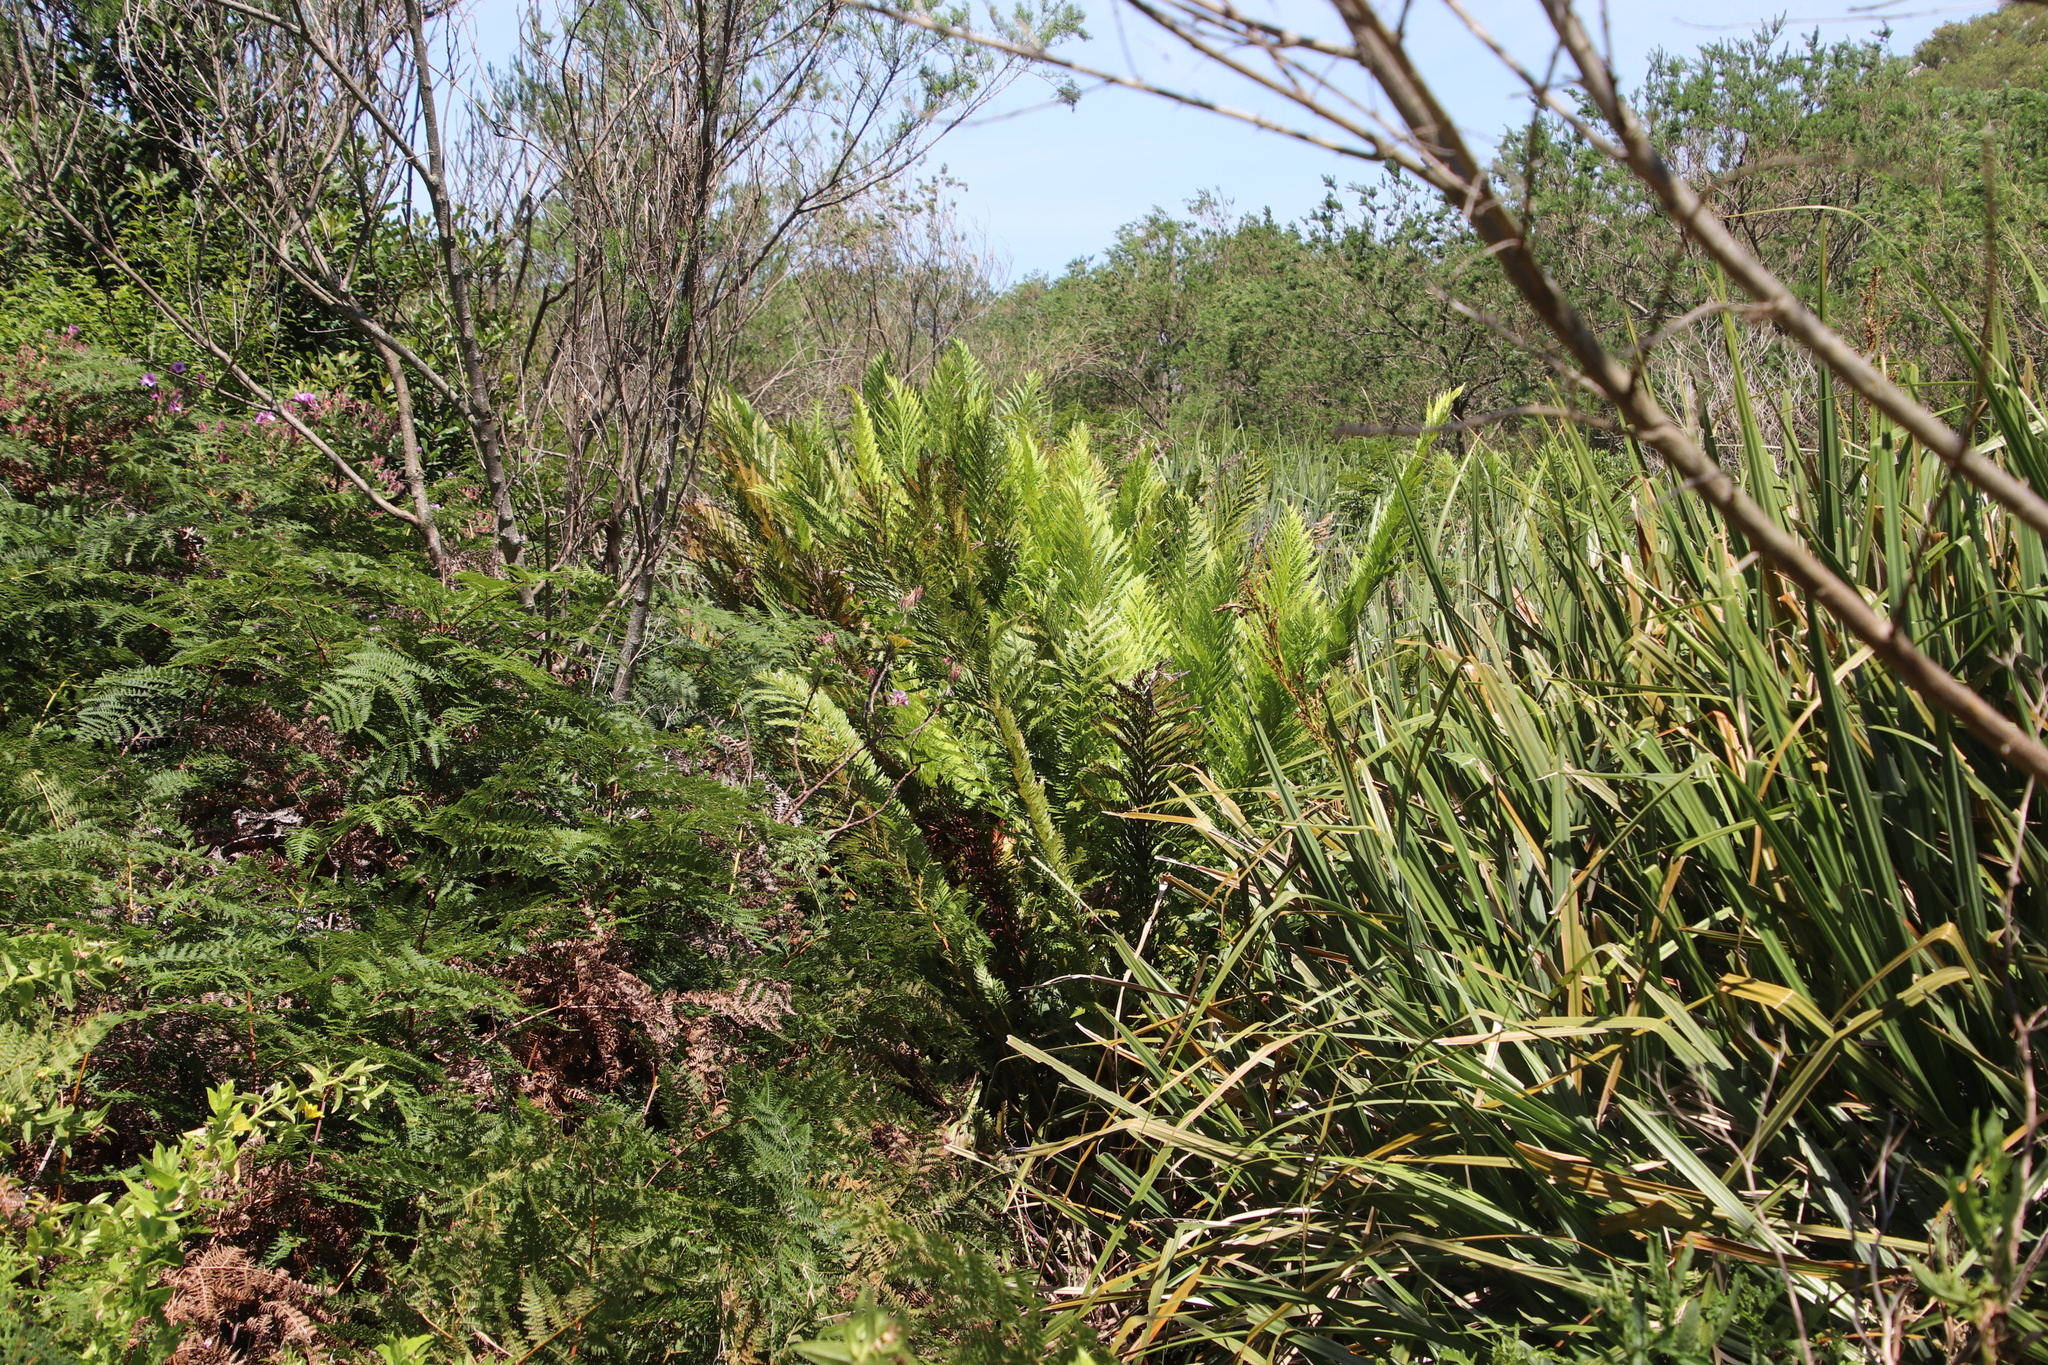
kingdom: Plantae
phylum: Tracheophyta
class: Polypodiopsida
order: Osmundales
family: Osmundaceae
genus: Todea
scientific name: Todea barbara
